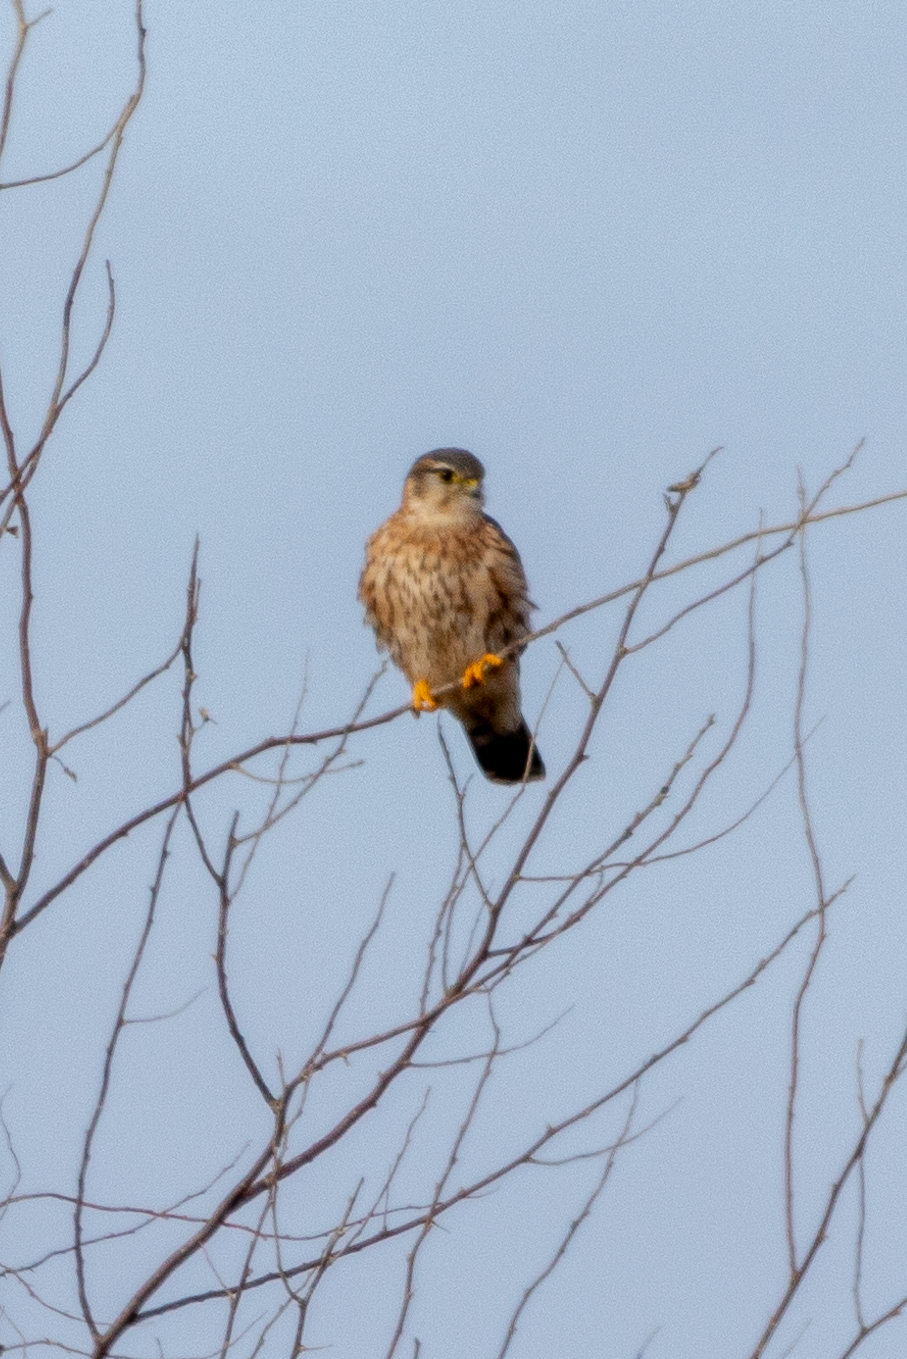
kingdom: Animalia
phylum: Chordata
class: Aves
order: Falconiformes
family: Falconidae
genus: Falco
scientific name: Falco columbarius
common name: Merlin
